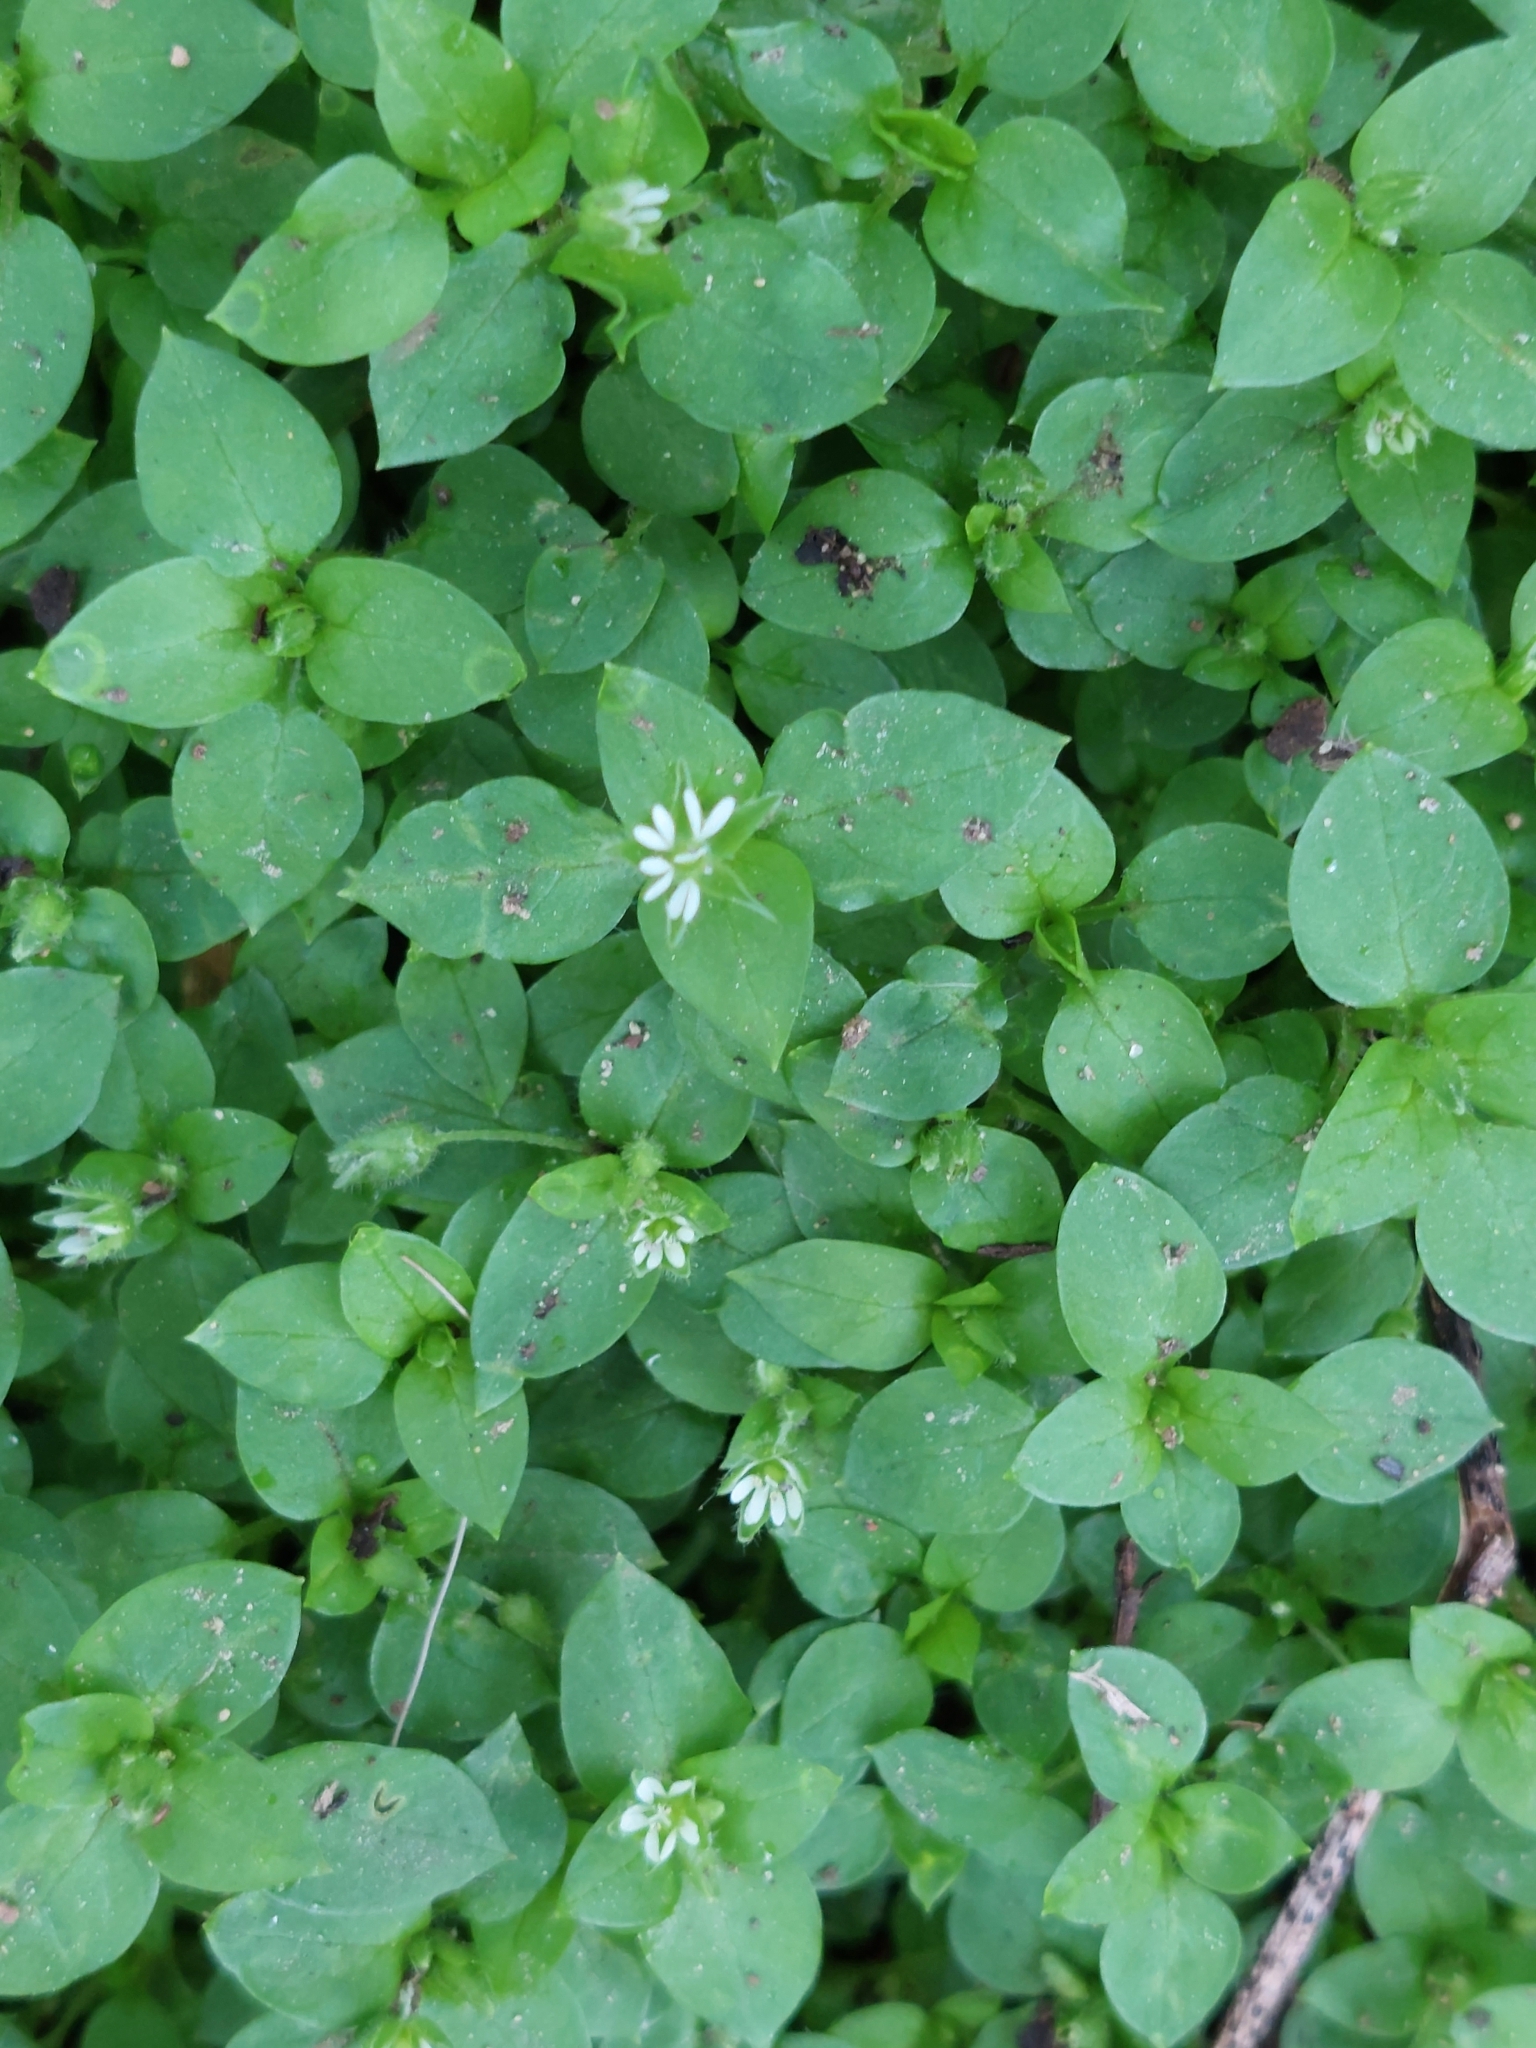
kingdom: Plantae
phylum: Tracheophyta
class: Magnoliopsida
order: Caryophyllales
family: Caryophyllaceae
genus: Stellaria
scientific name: Stellaria media
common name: Common chickweed
